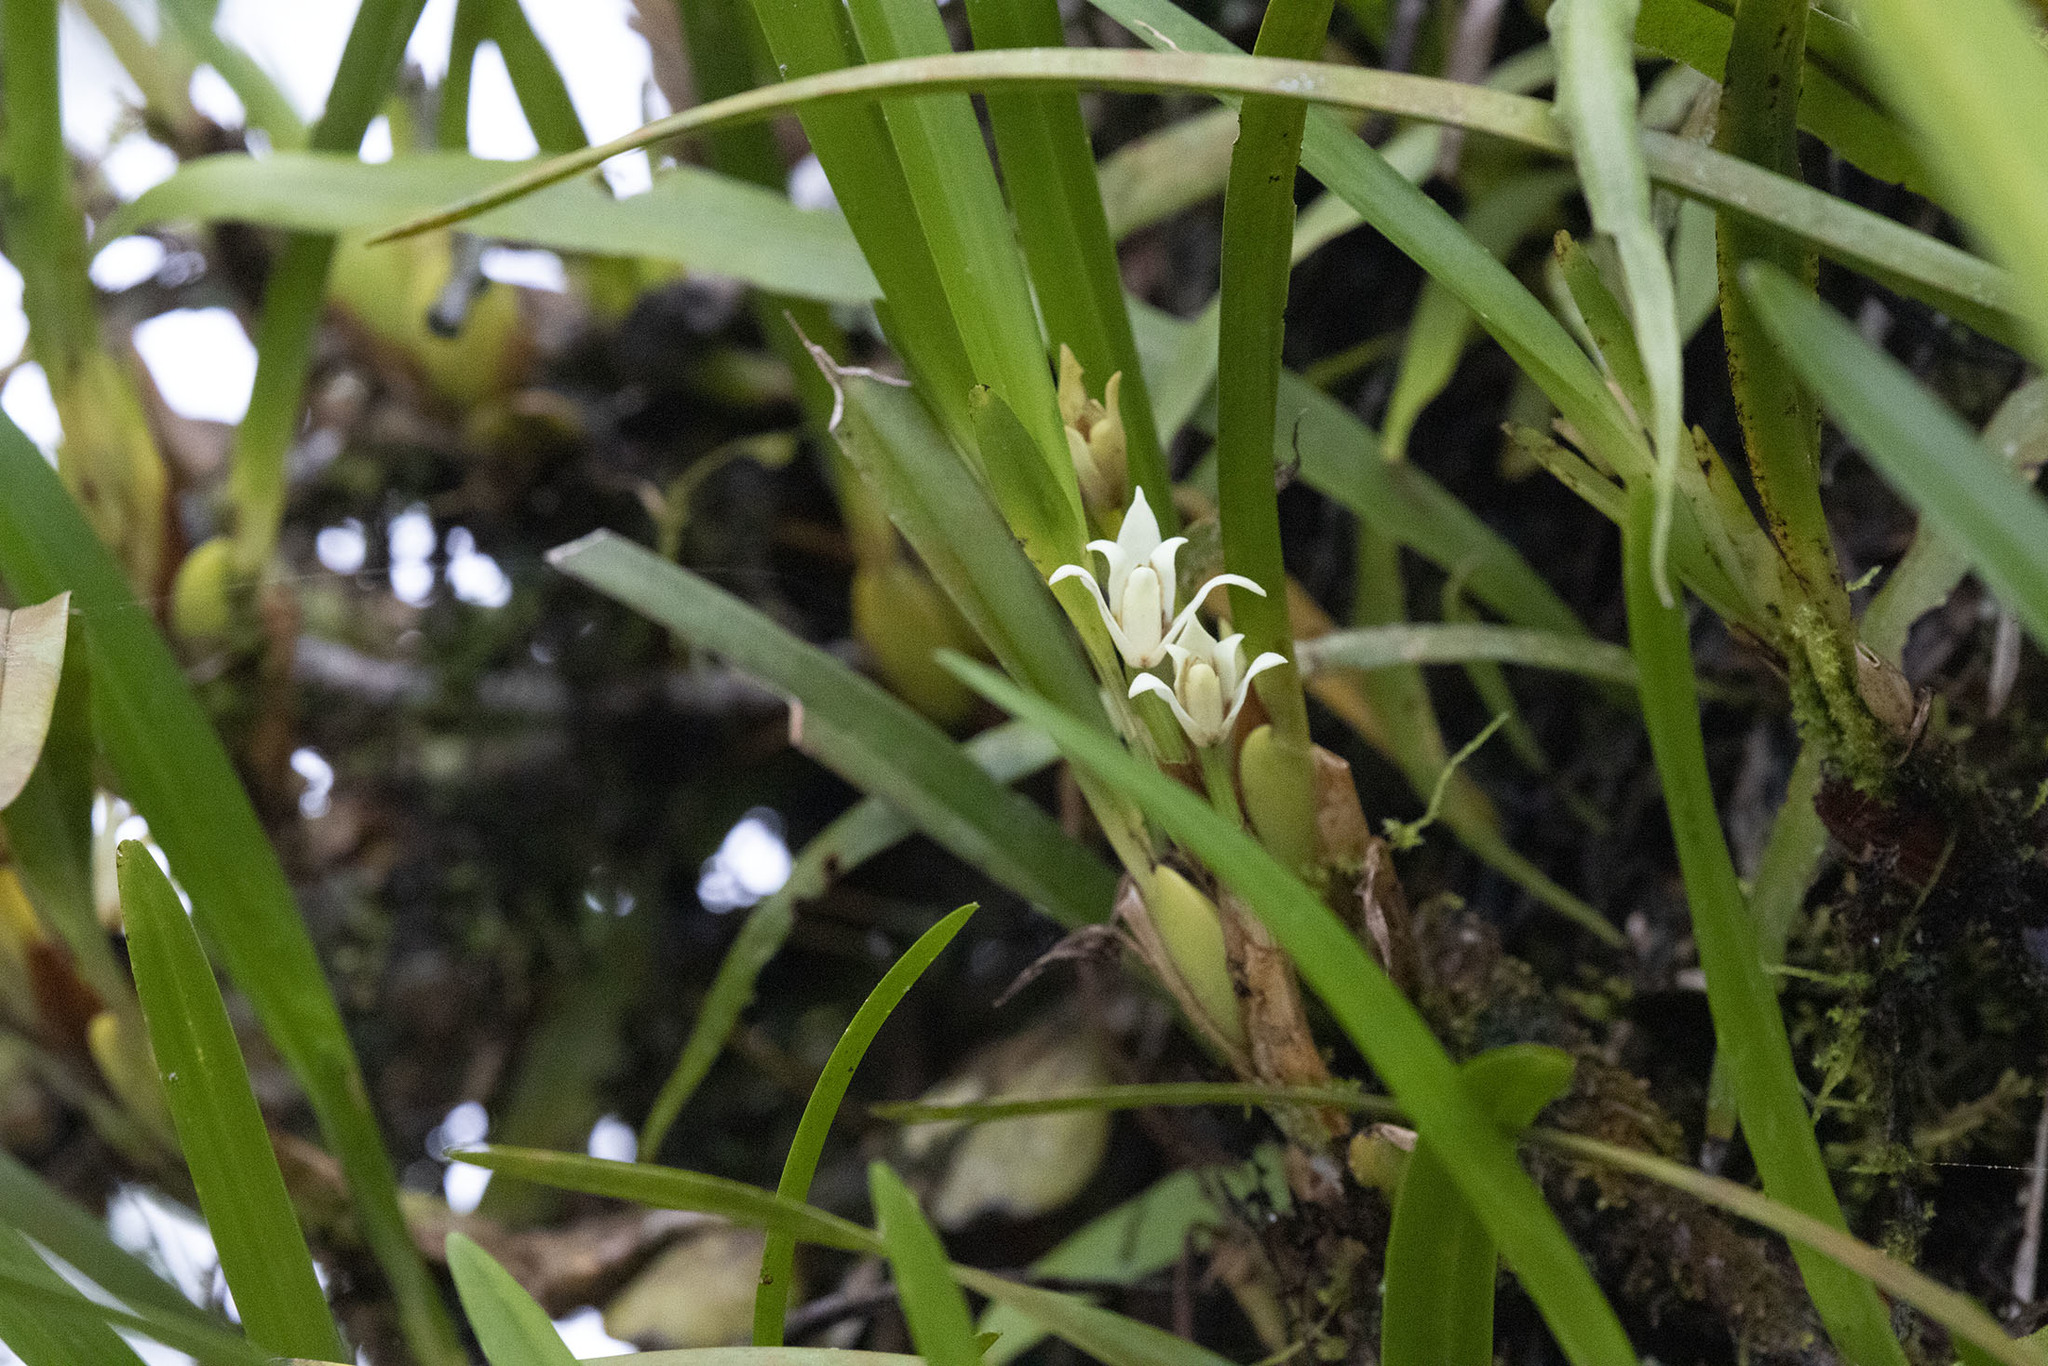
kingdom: Plantae
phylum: Tracheophyta
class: Liliopsida
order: Asparagales
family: Orchidaceae
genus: Maxillaria
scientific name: Maxillaria alba
